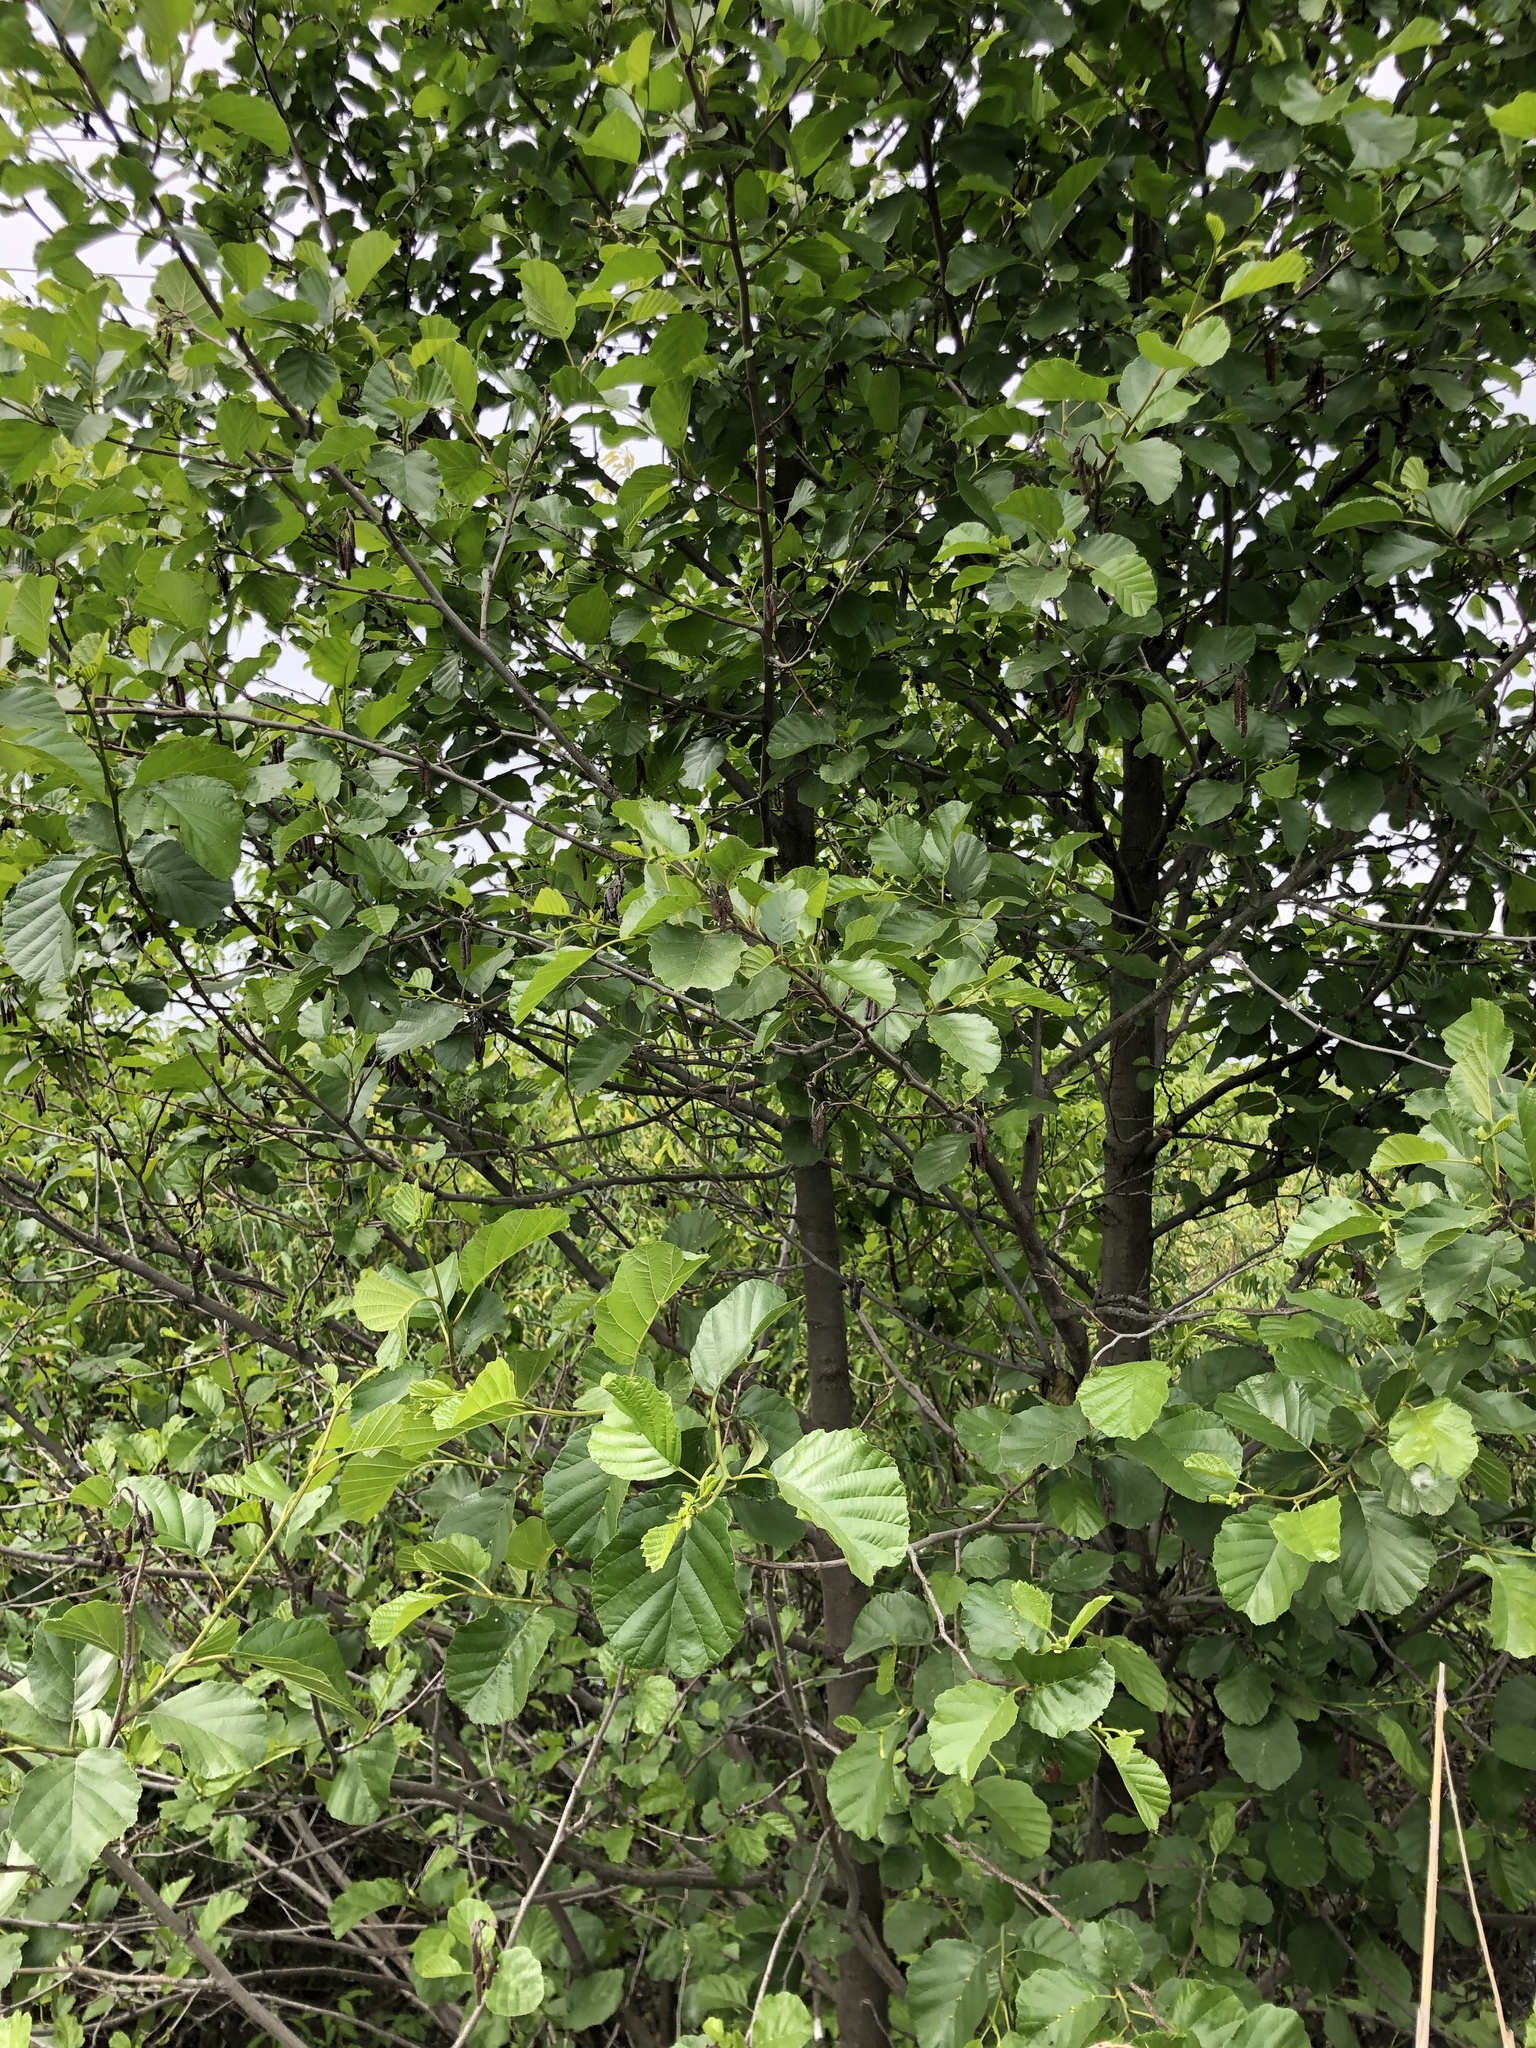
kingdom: Plantae
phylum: Tracheophyta
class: Magnoliopsida
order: Fagales
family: Betulaceae
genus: Alnus
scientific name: Alnus glutinosa
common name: Black alder
